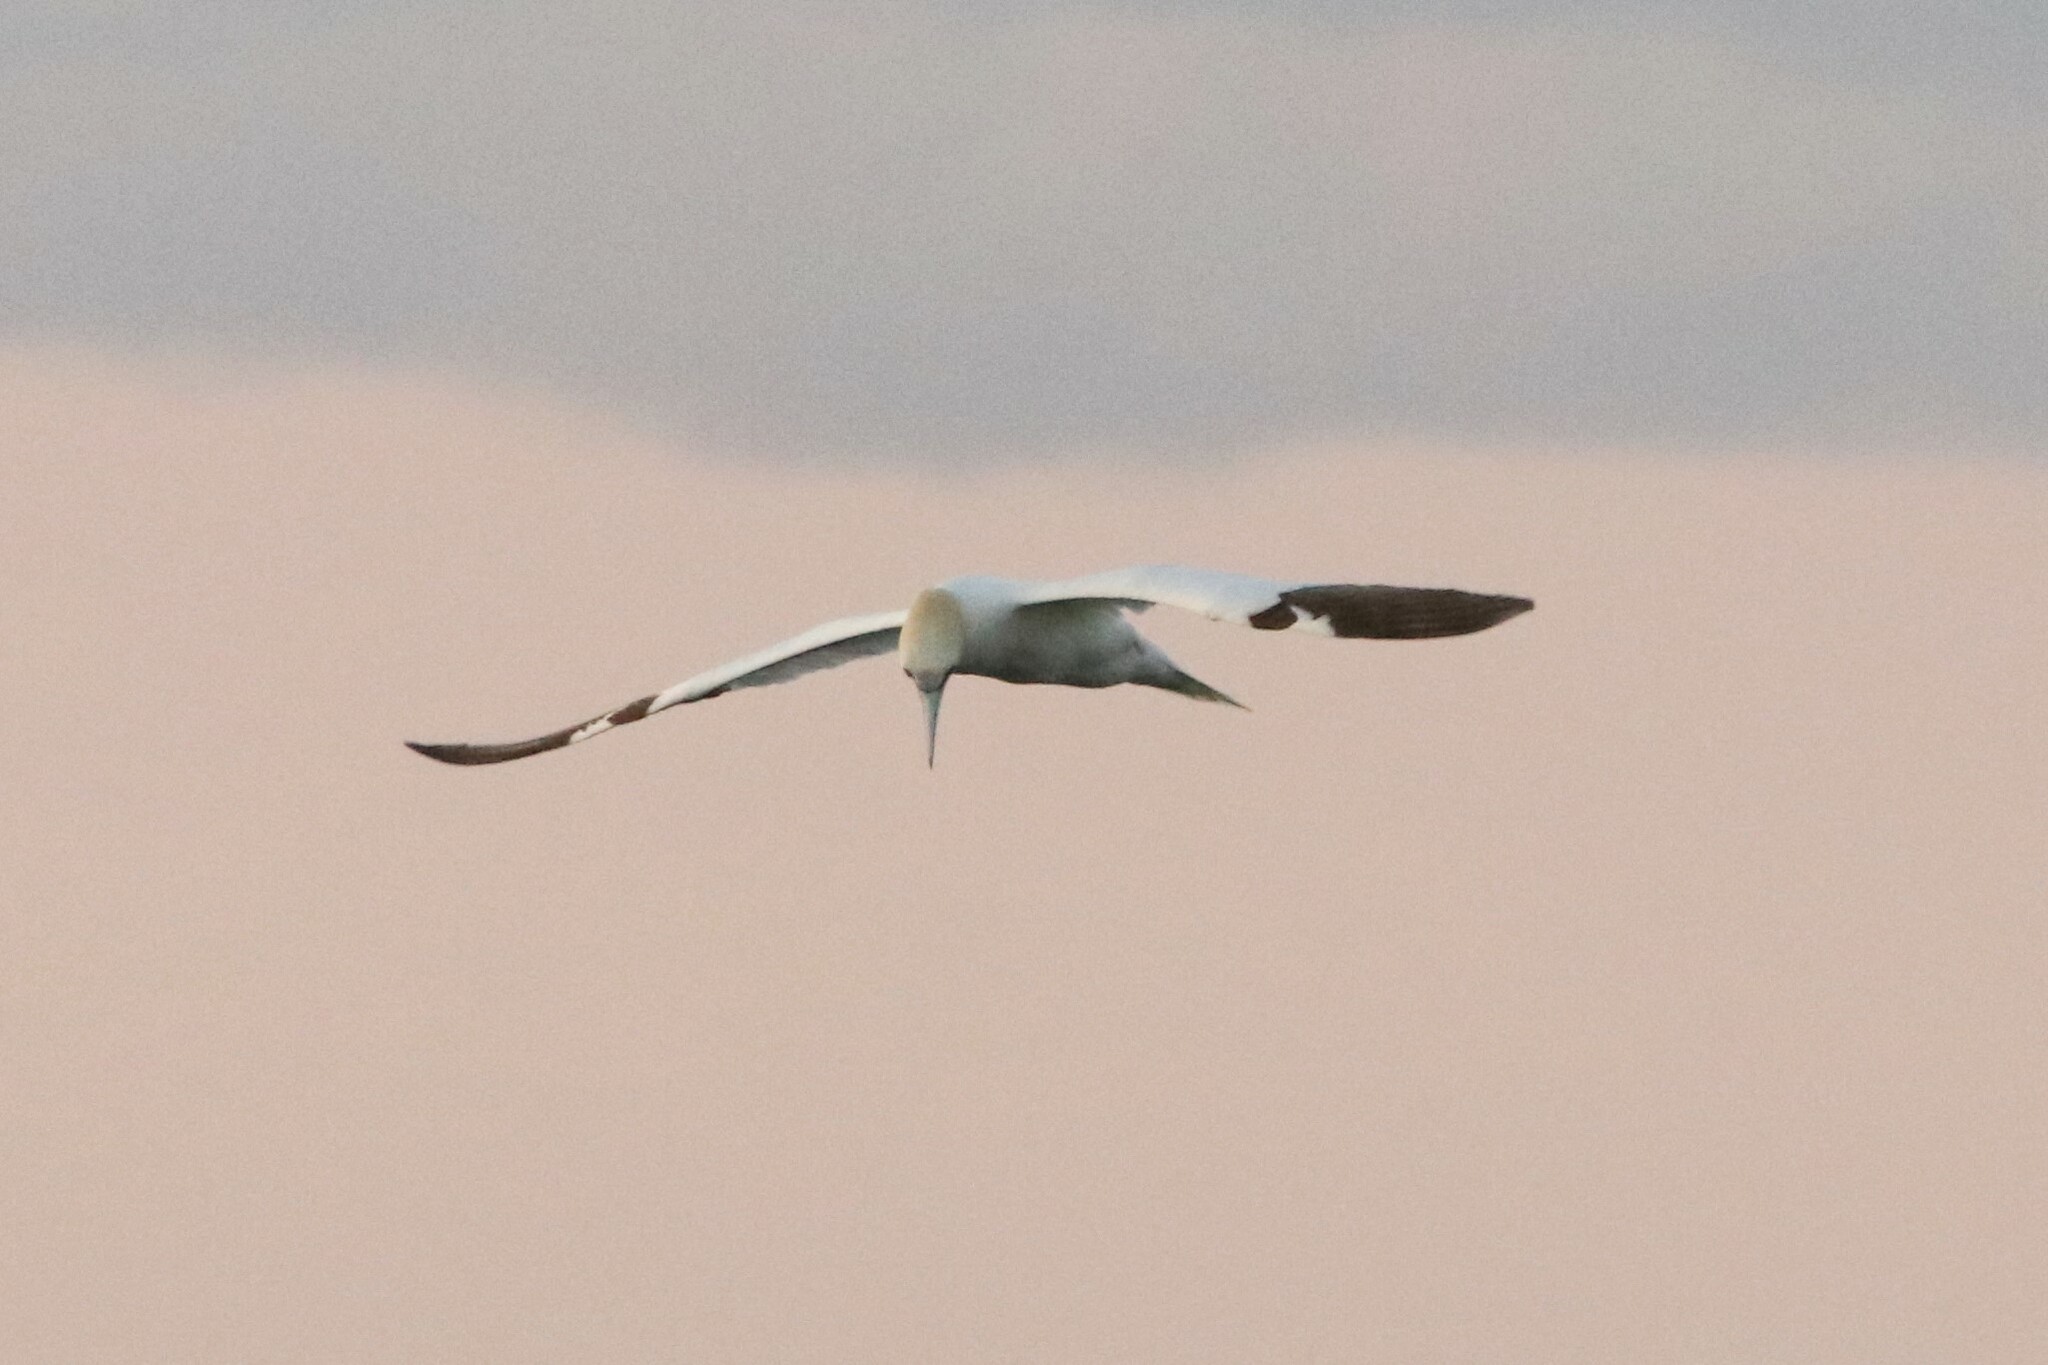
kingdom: Animalia
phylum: Chordata
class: Aves
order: Suliformes
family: Sulidae
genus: Morus
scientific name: Morus bassanus
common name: Northern gannet
